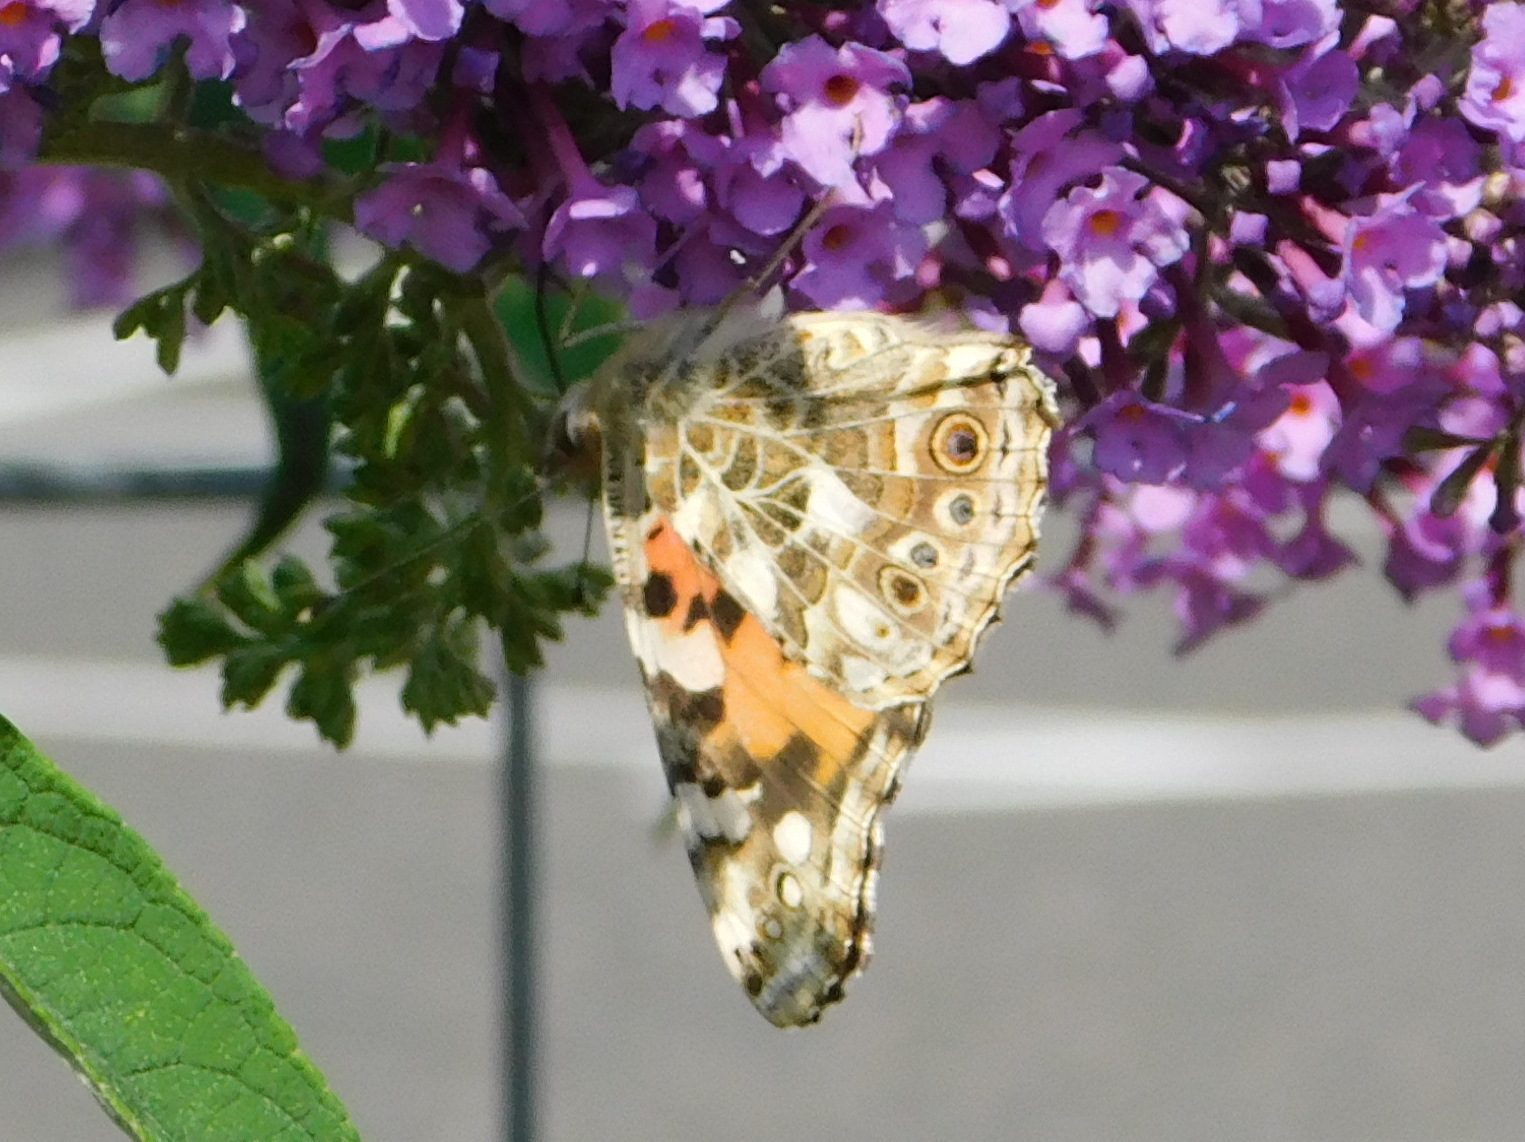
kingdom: Animalia
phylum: Arthropoda
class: Insecta
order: Lepidoptera
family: Nymphalidae
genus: Vanessa
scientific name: Vanessa cardui
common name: Painted lady
